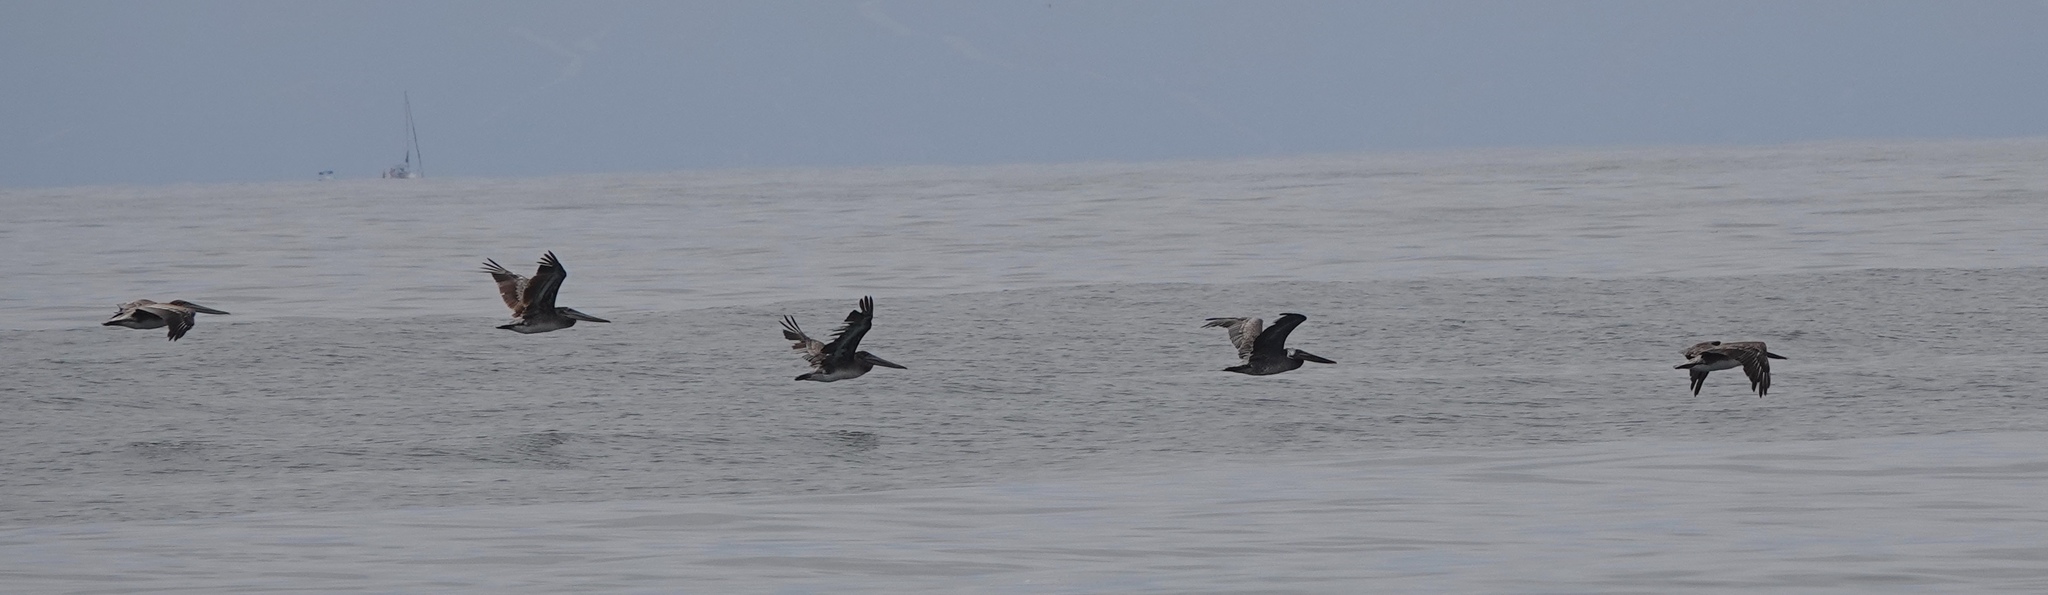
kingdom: Animalia
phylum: Chordata
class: Aves
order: Pelecaniformes
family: Pelecanidae
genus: Pelecanus
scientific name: Pelecanus occidentalis
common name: Brown pelican
